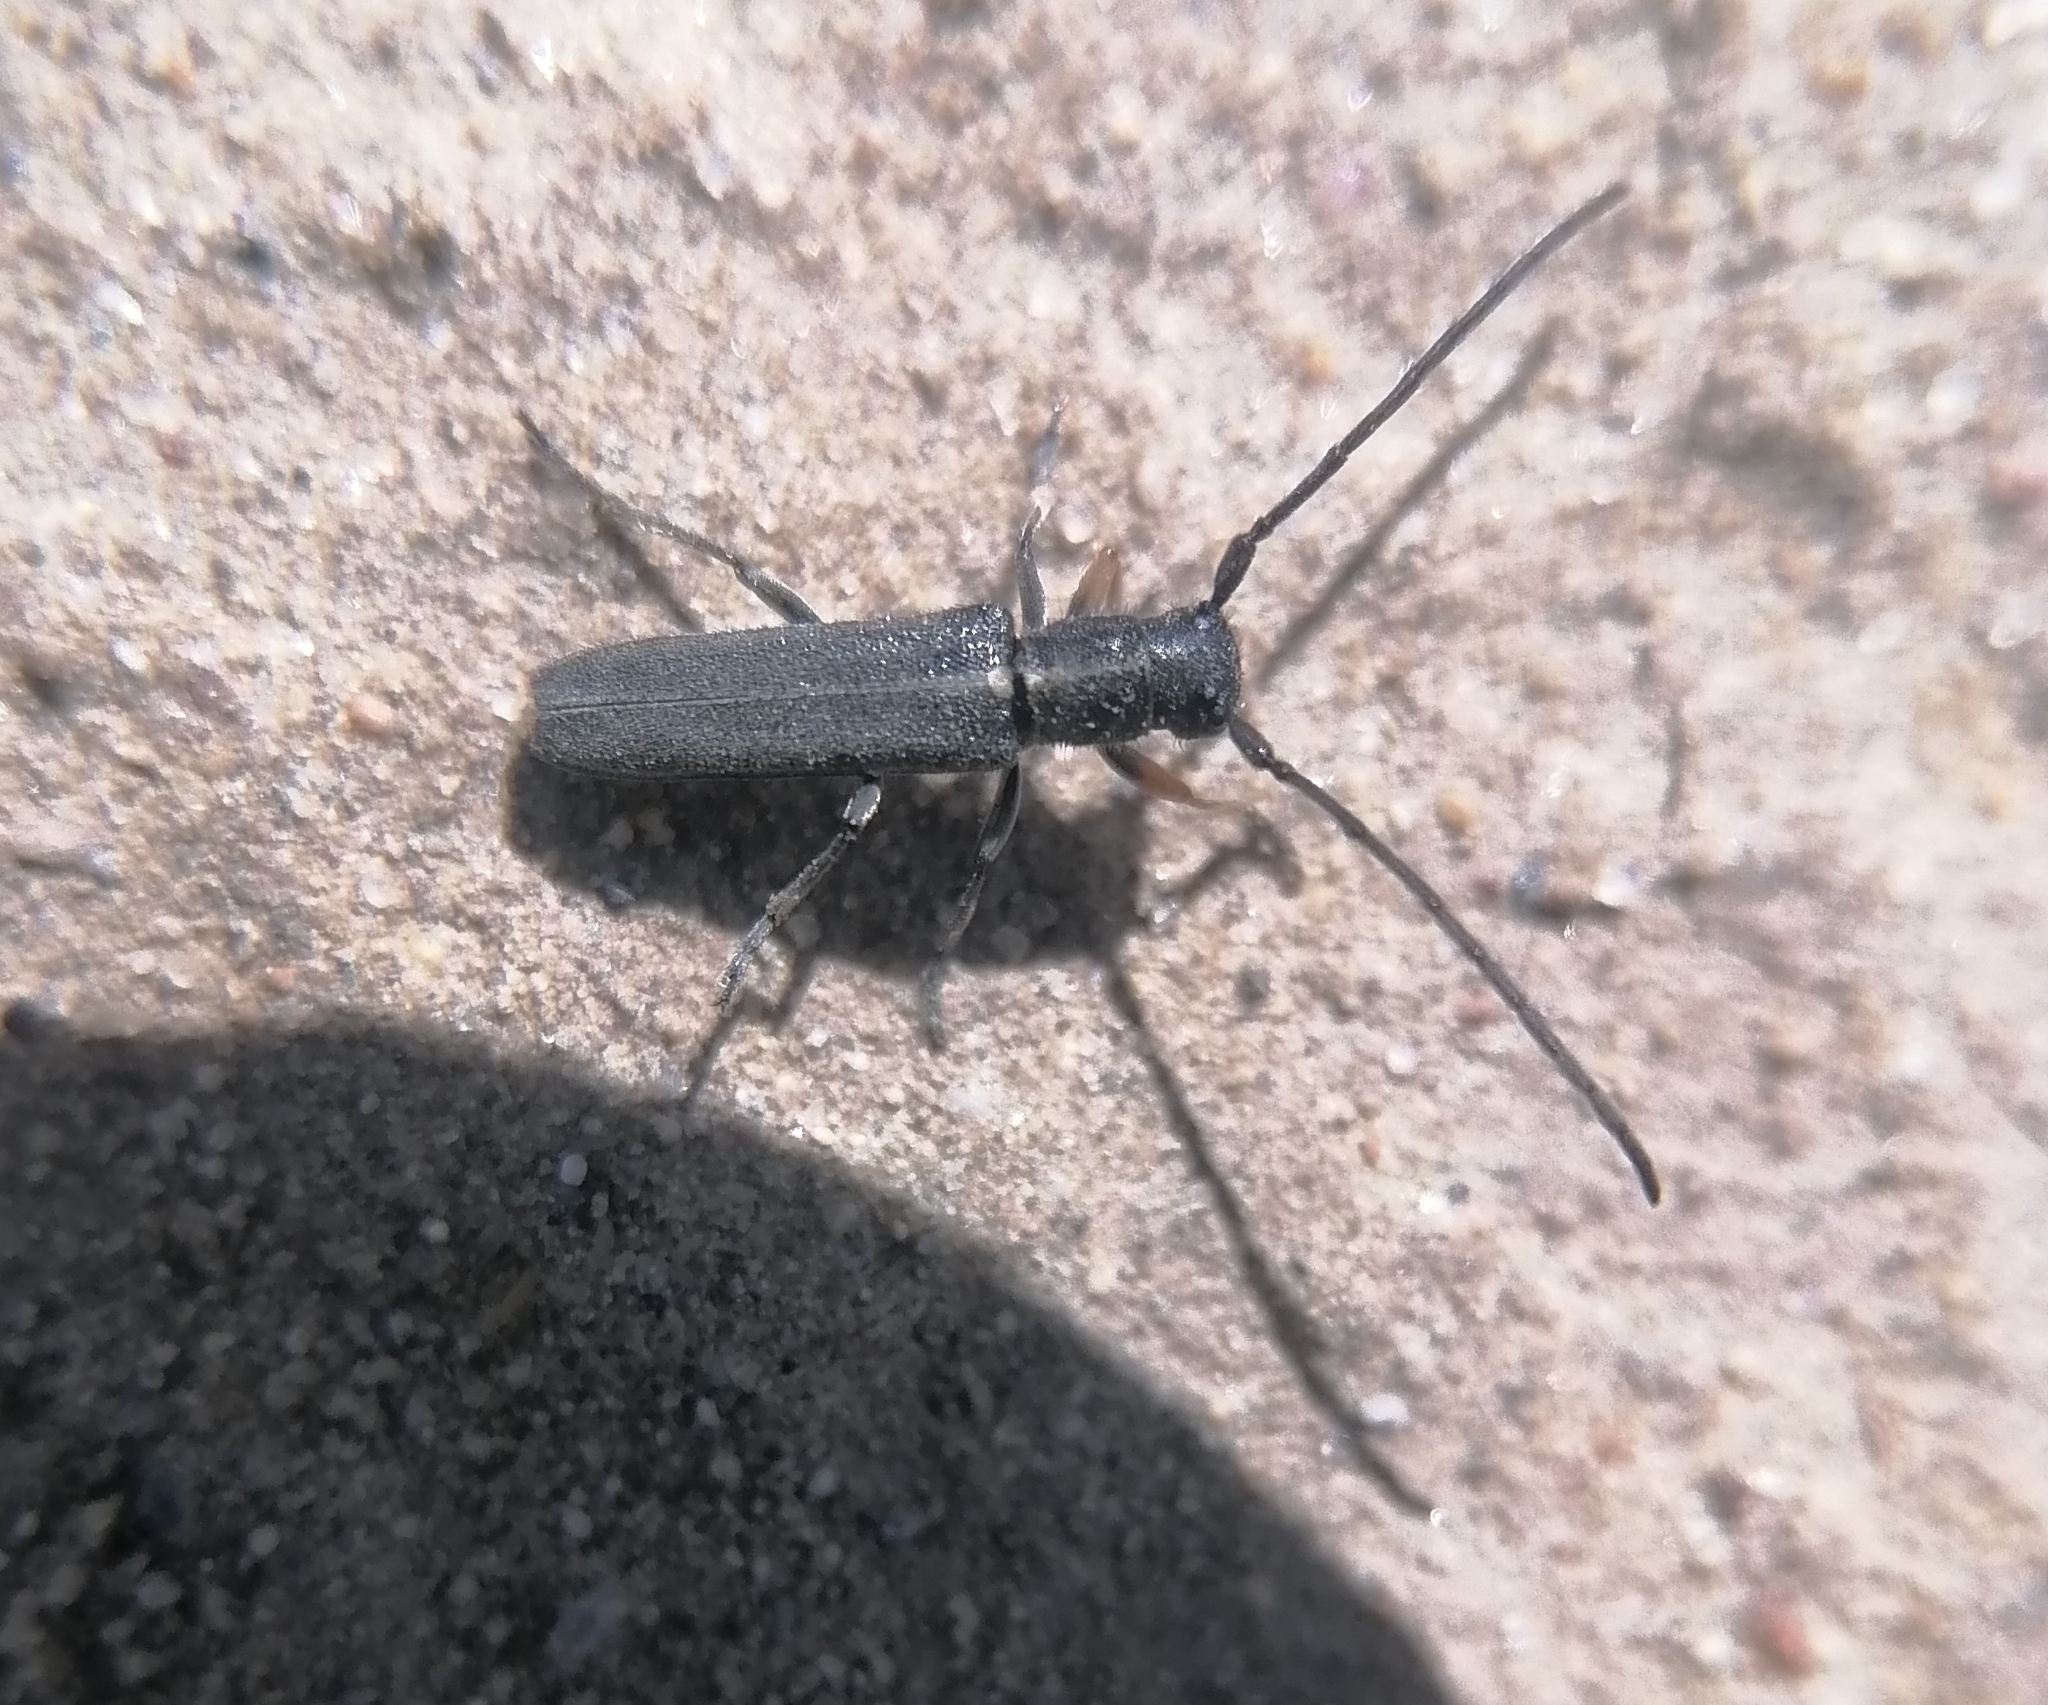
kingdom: Animalia
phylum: Arthropoda
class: Insecta
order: Coleoptera
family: Cerambycidae
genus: Phytoecia
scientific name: Phytoecia cylindrica
